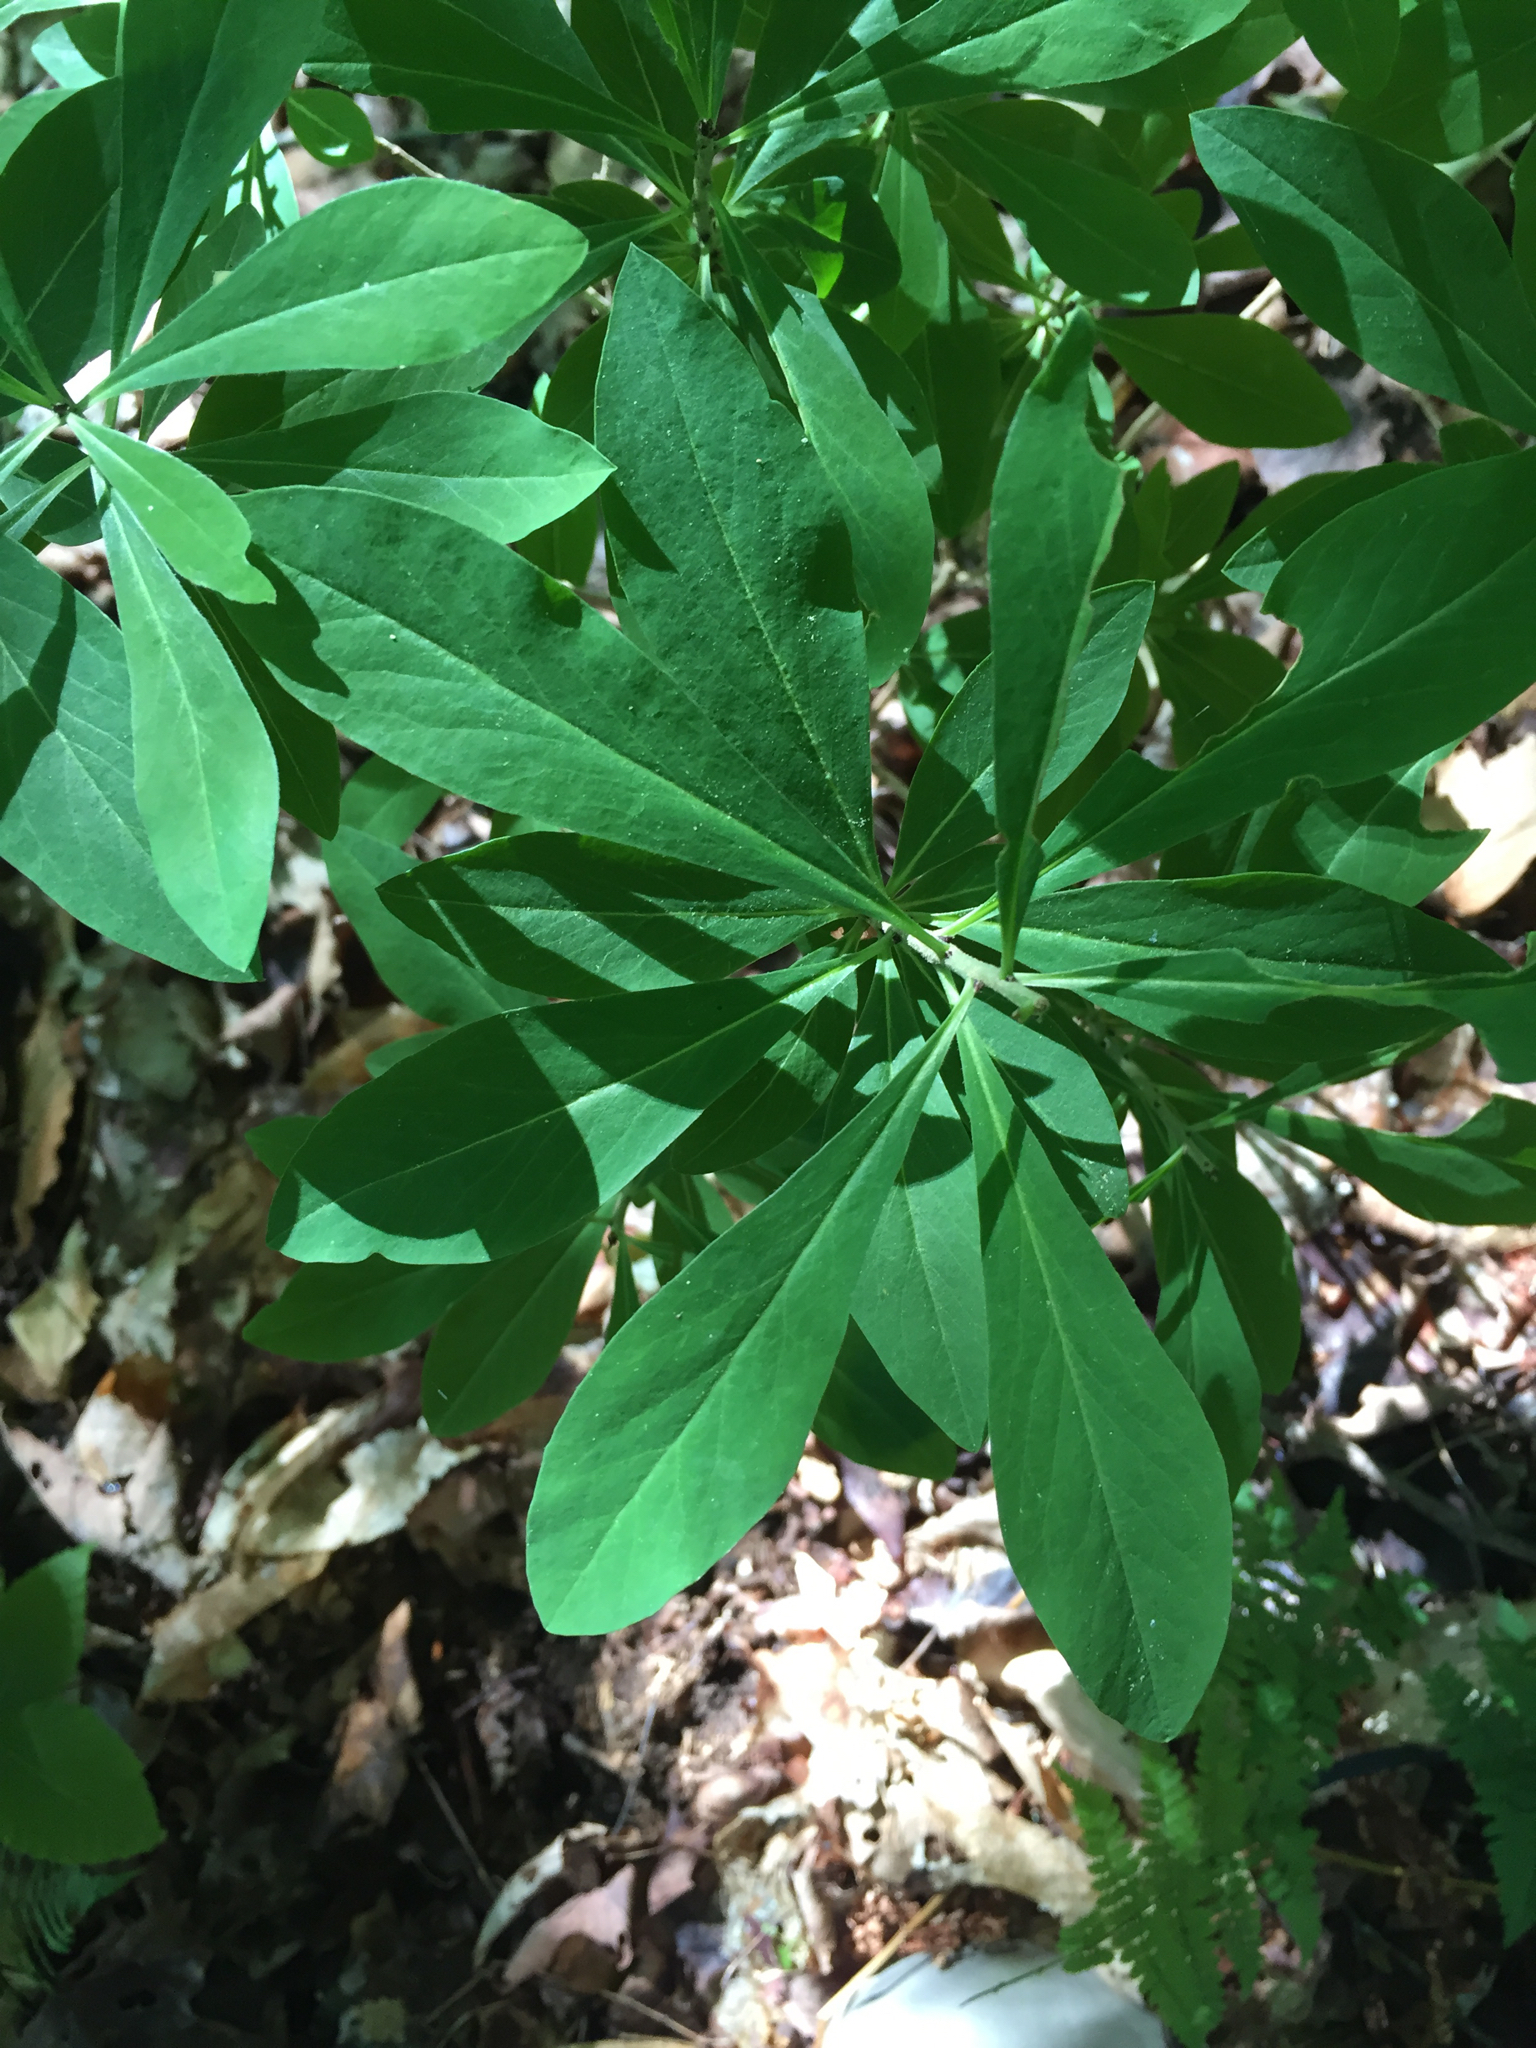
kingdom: Plantae
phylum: Tracheophyta
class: Magnoliopsida
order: Malvales
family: Thymelaeaceae
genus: Daphne
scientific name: Daphne mezereum
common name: Mezereon
